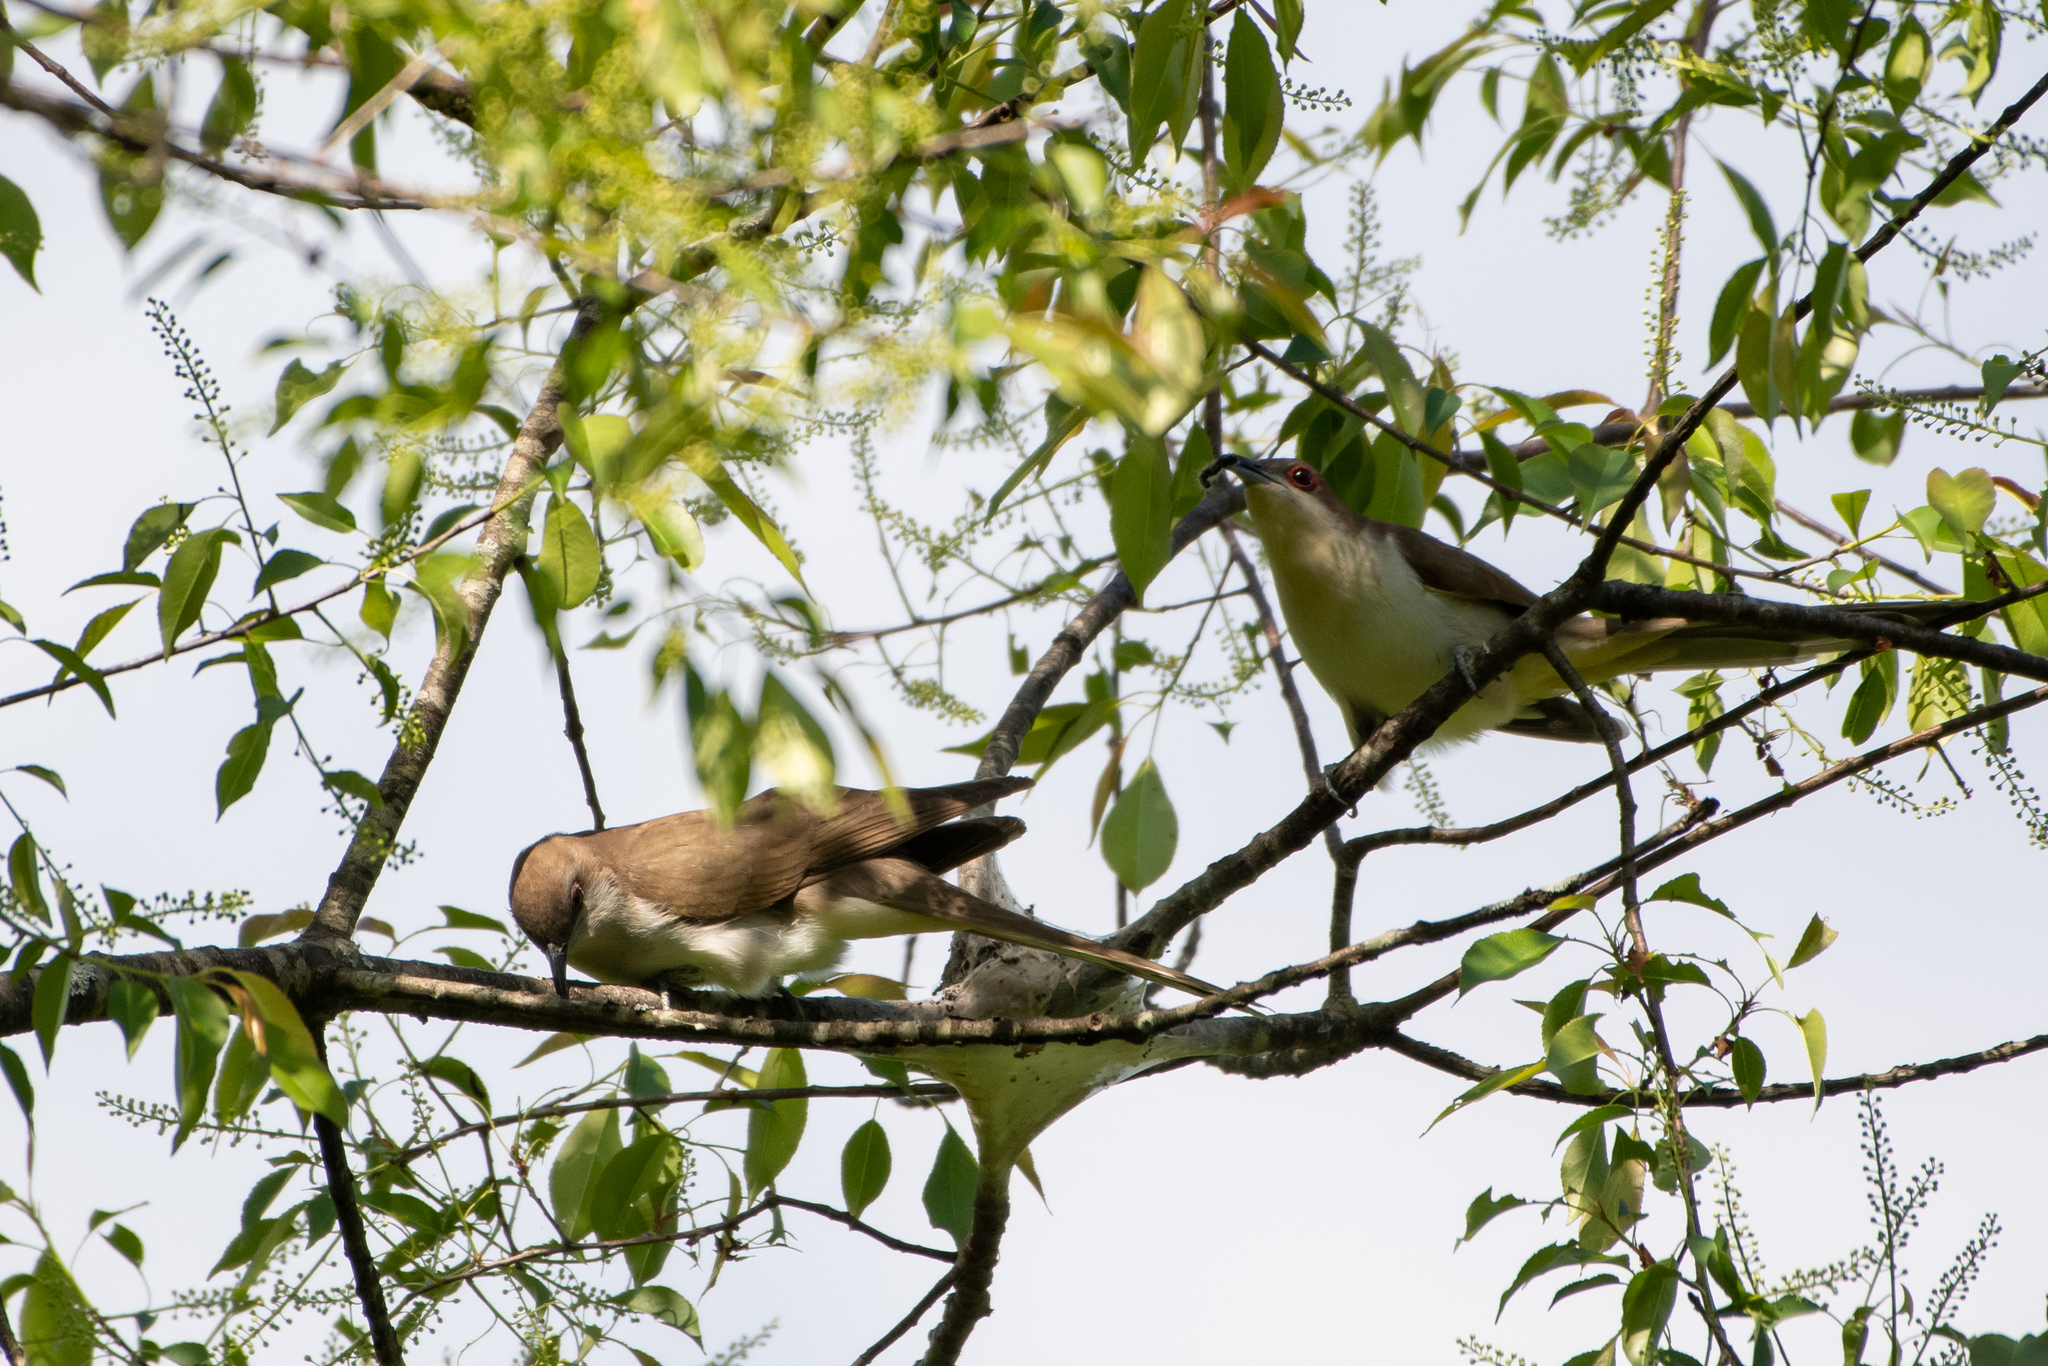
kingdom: Animalia
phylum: Chordata
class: Aves
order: Cuculiformes
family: Cuculidae
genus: Coccyzus
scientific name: Coccyzus erythropthalmus
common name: Black-billed cuckoo
